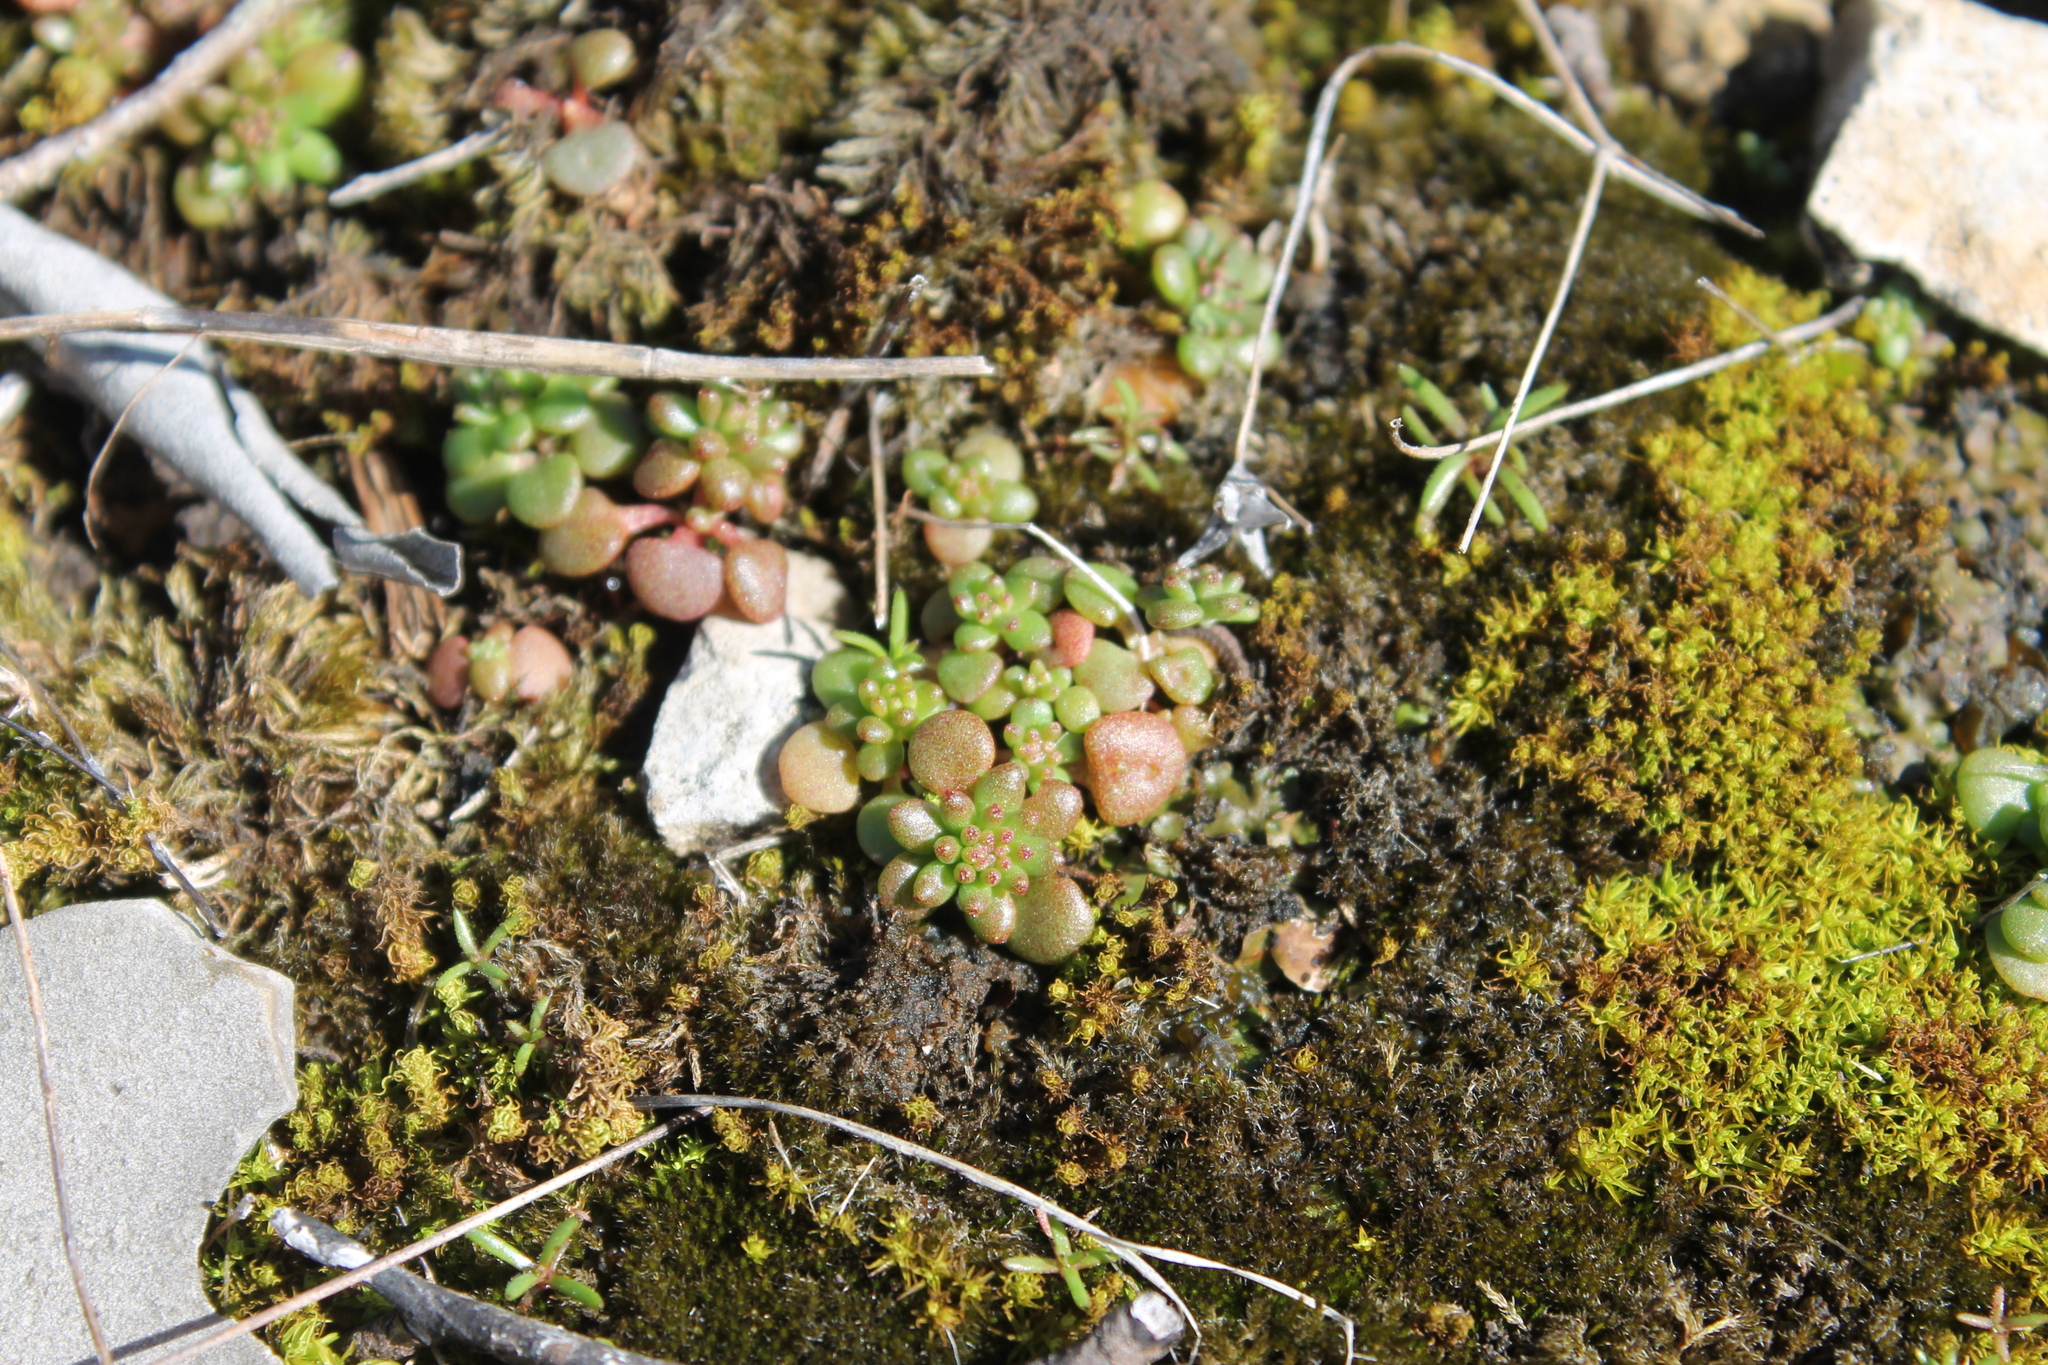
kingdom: Plantae
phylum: Tracheophyta
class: Magnoliopsida
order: Saxifragales
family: Crassulaceae
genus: Sedum
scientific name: Sedum pulchellum
